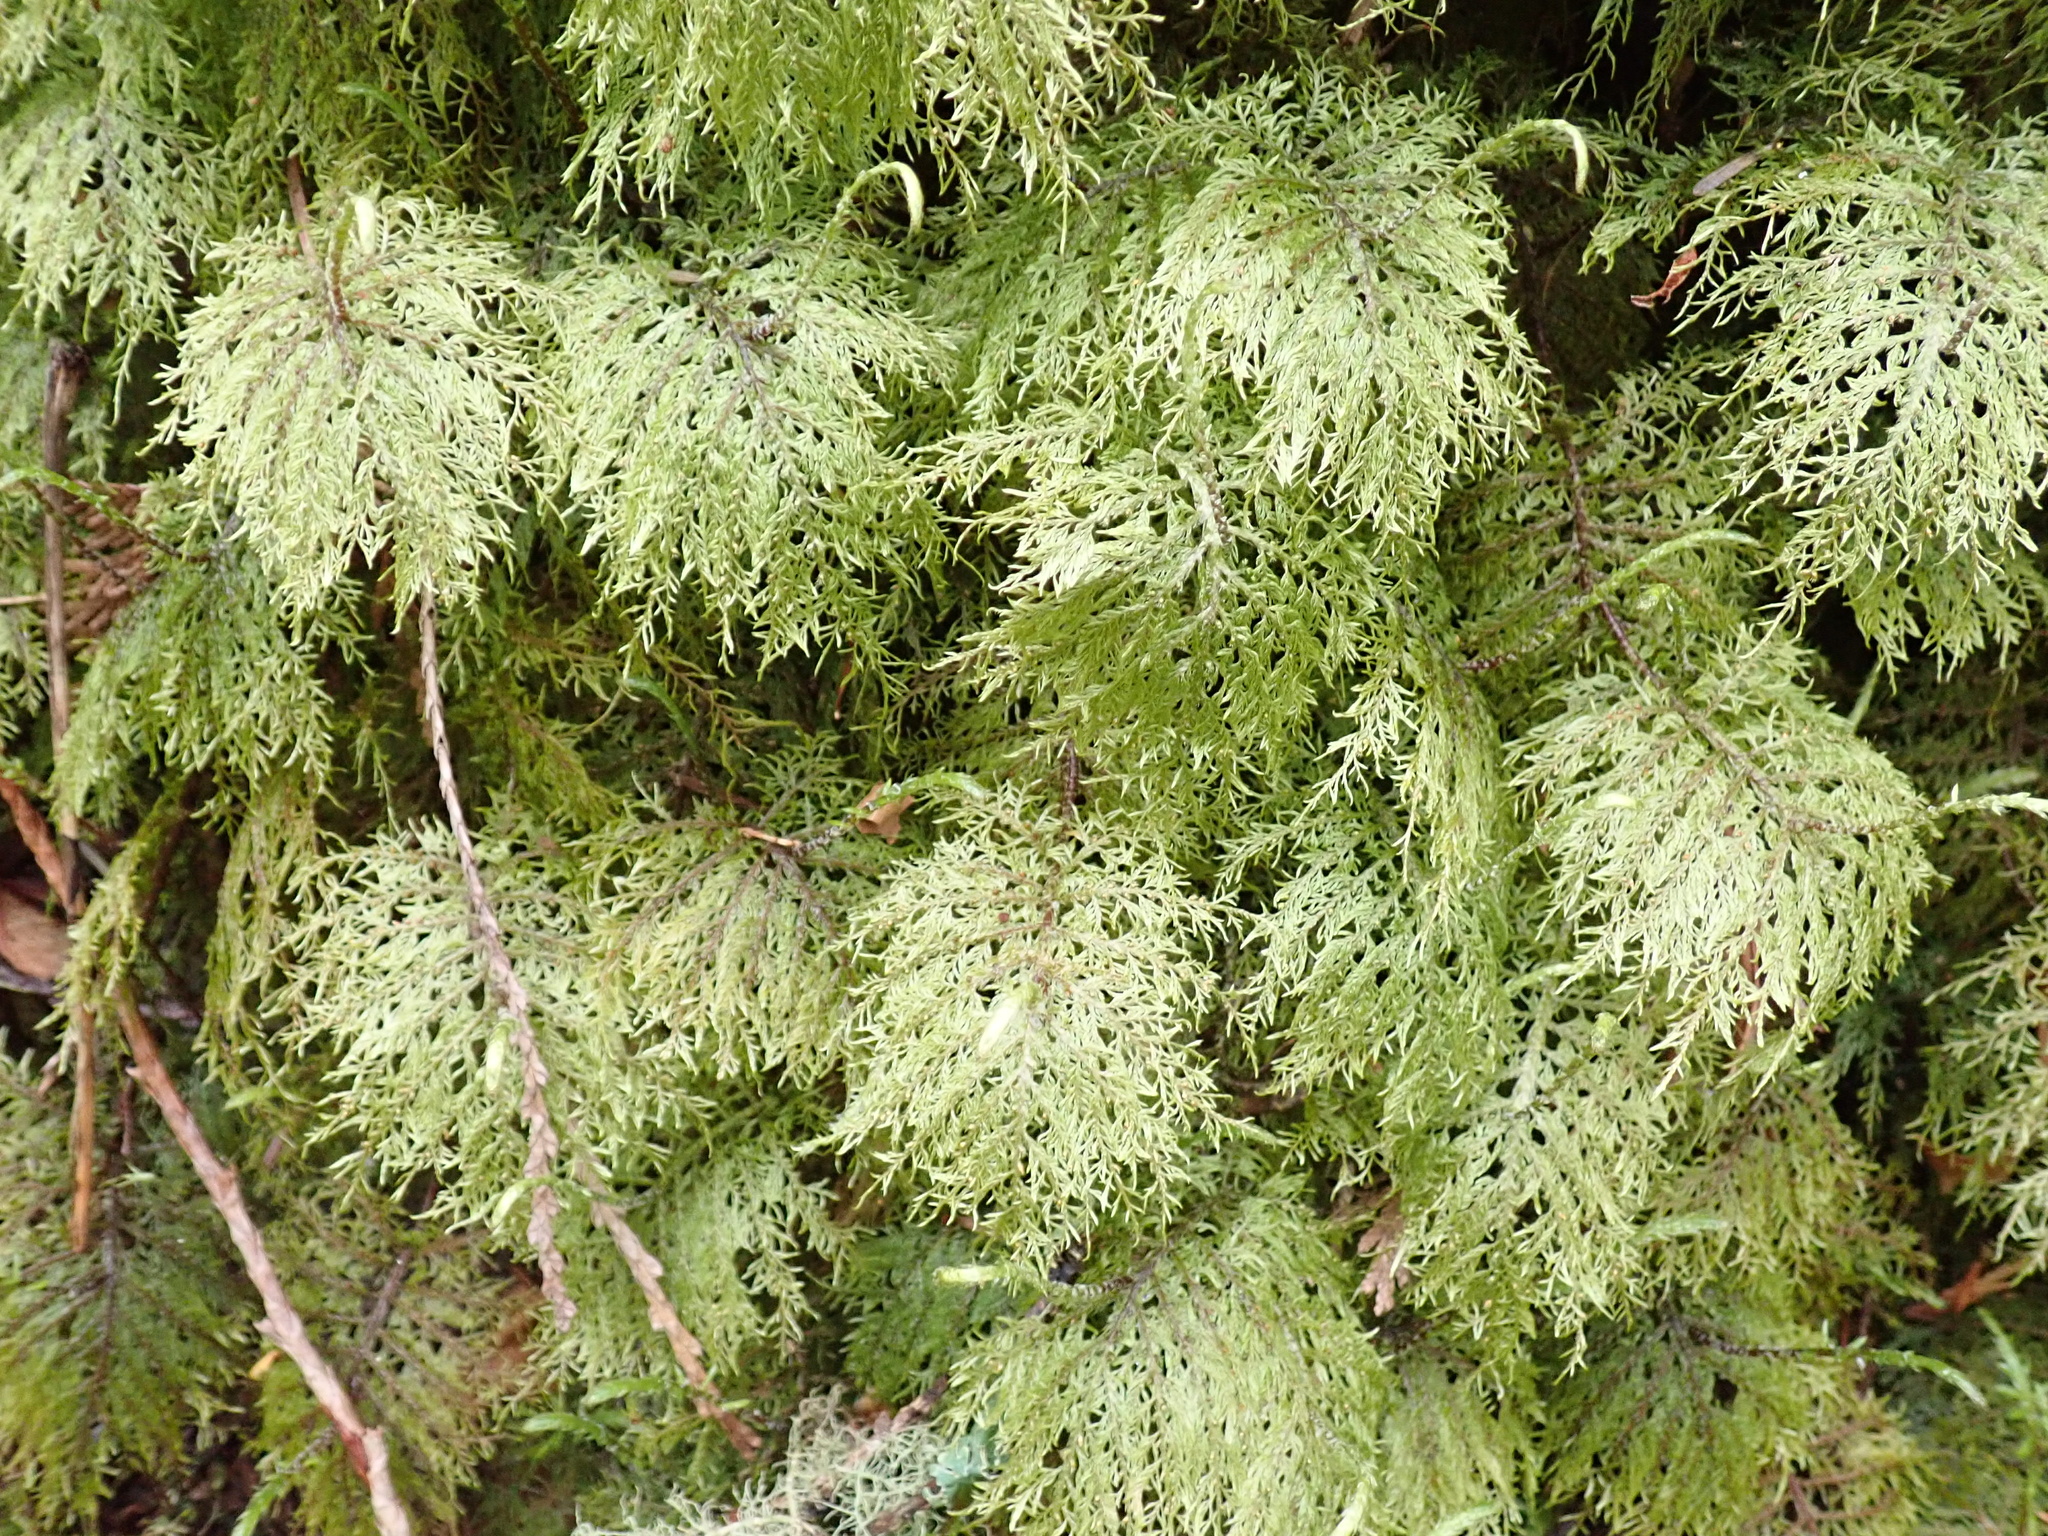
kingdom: Plantae
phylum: Bryophyta
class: Bryopsida
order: Hypnales
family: Hylocomiaceae
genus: Hylocomium
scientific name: Hylocomium splendens
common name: Stairstep moss
